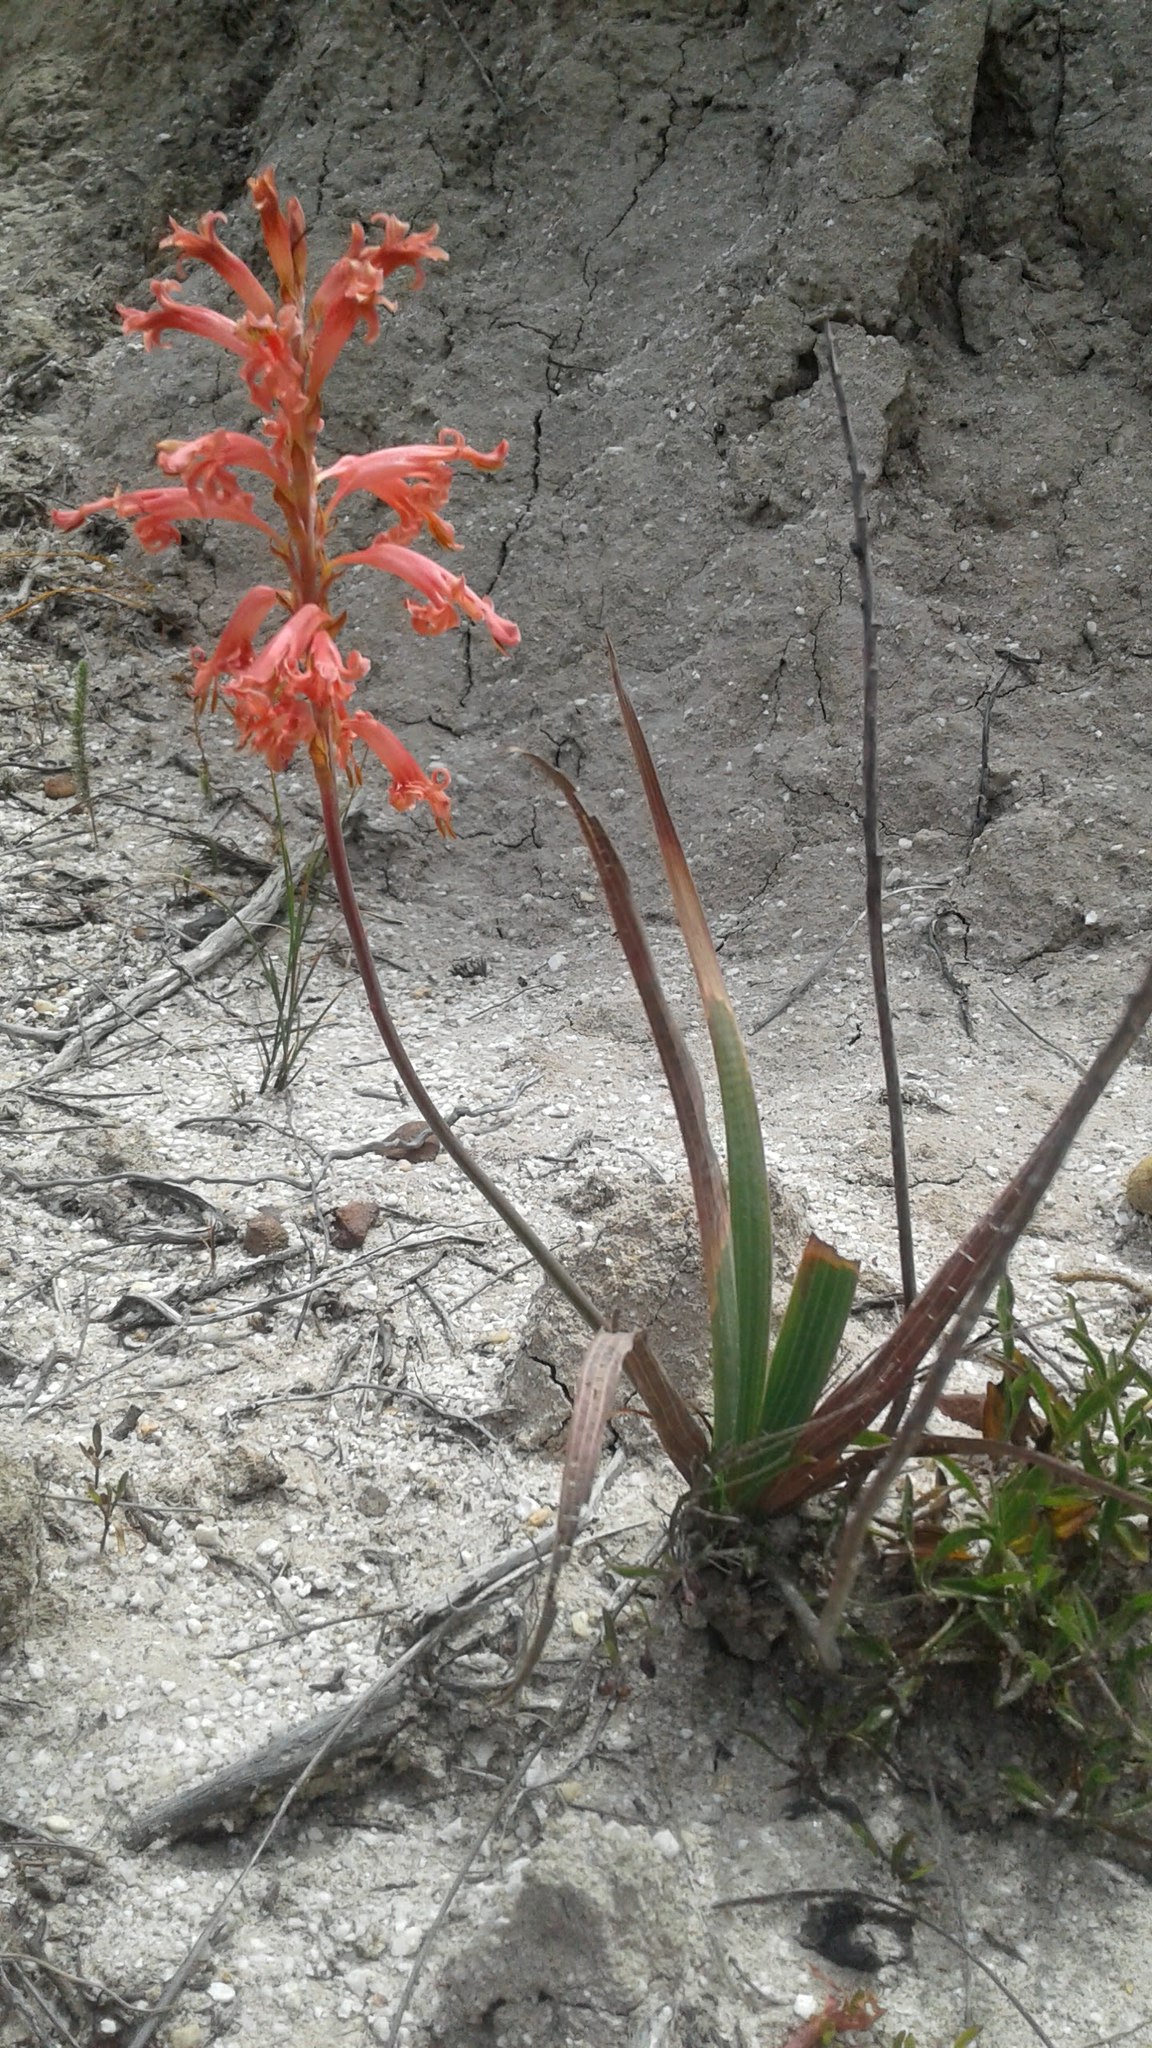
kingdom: Plantae
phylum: Tracheophyta
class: Liliopsida
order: Asparagales
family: Iridaceae
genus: Tritoniopsis
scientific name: Tritoniopsis antholyza
